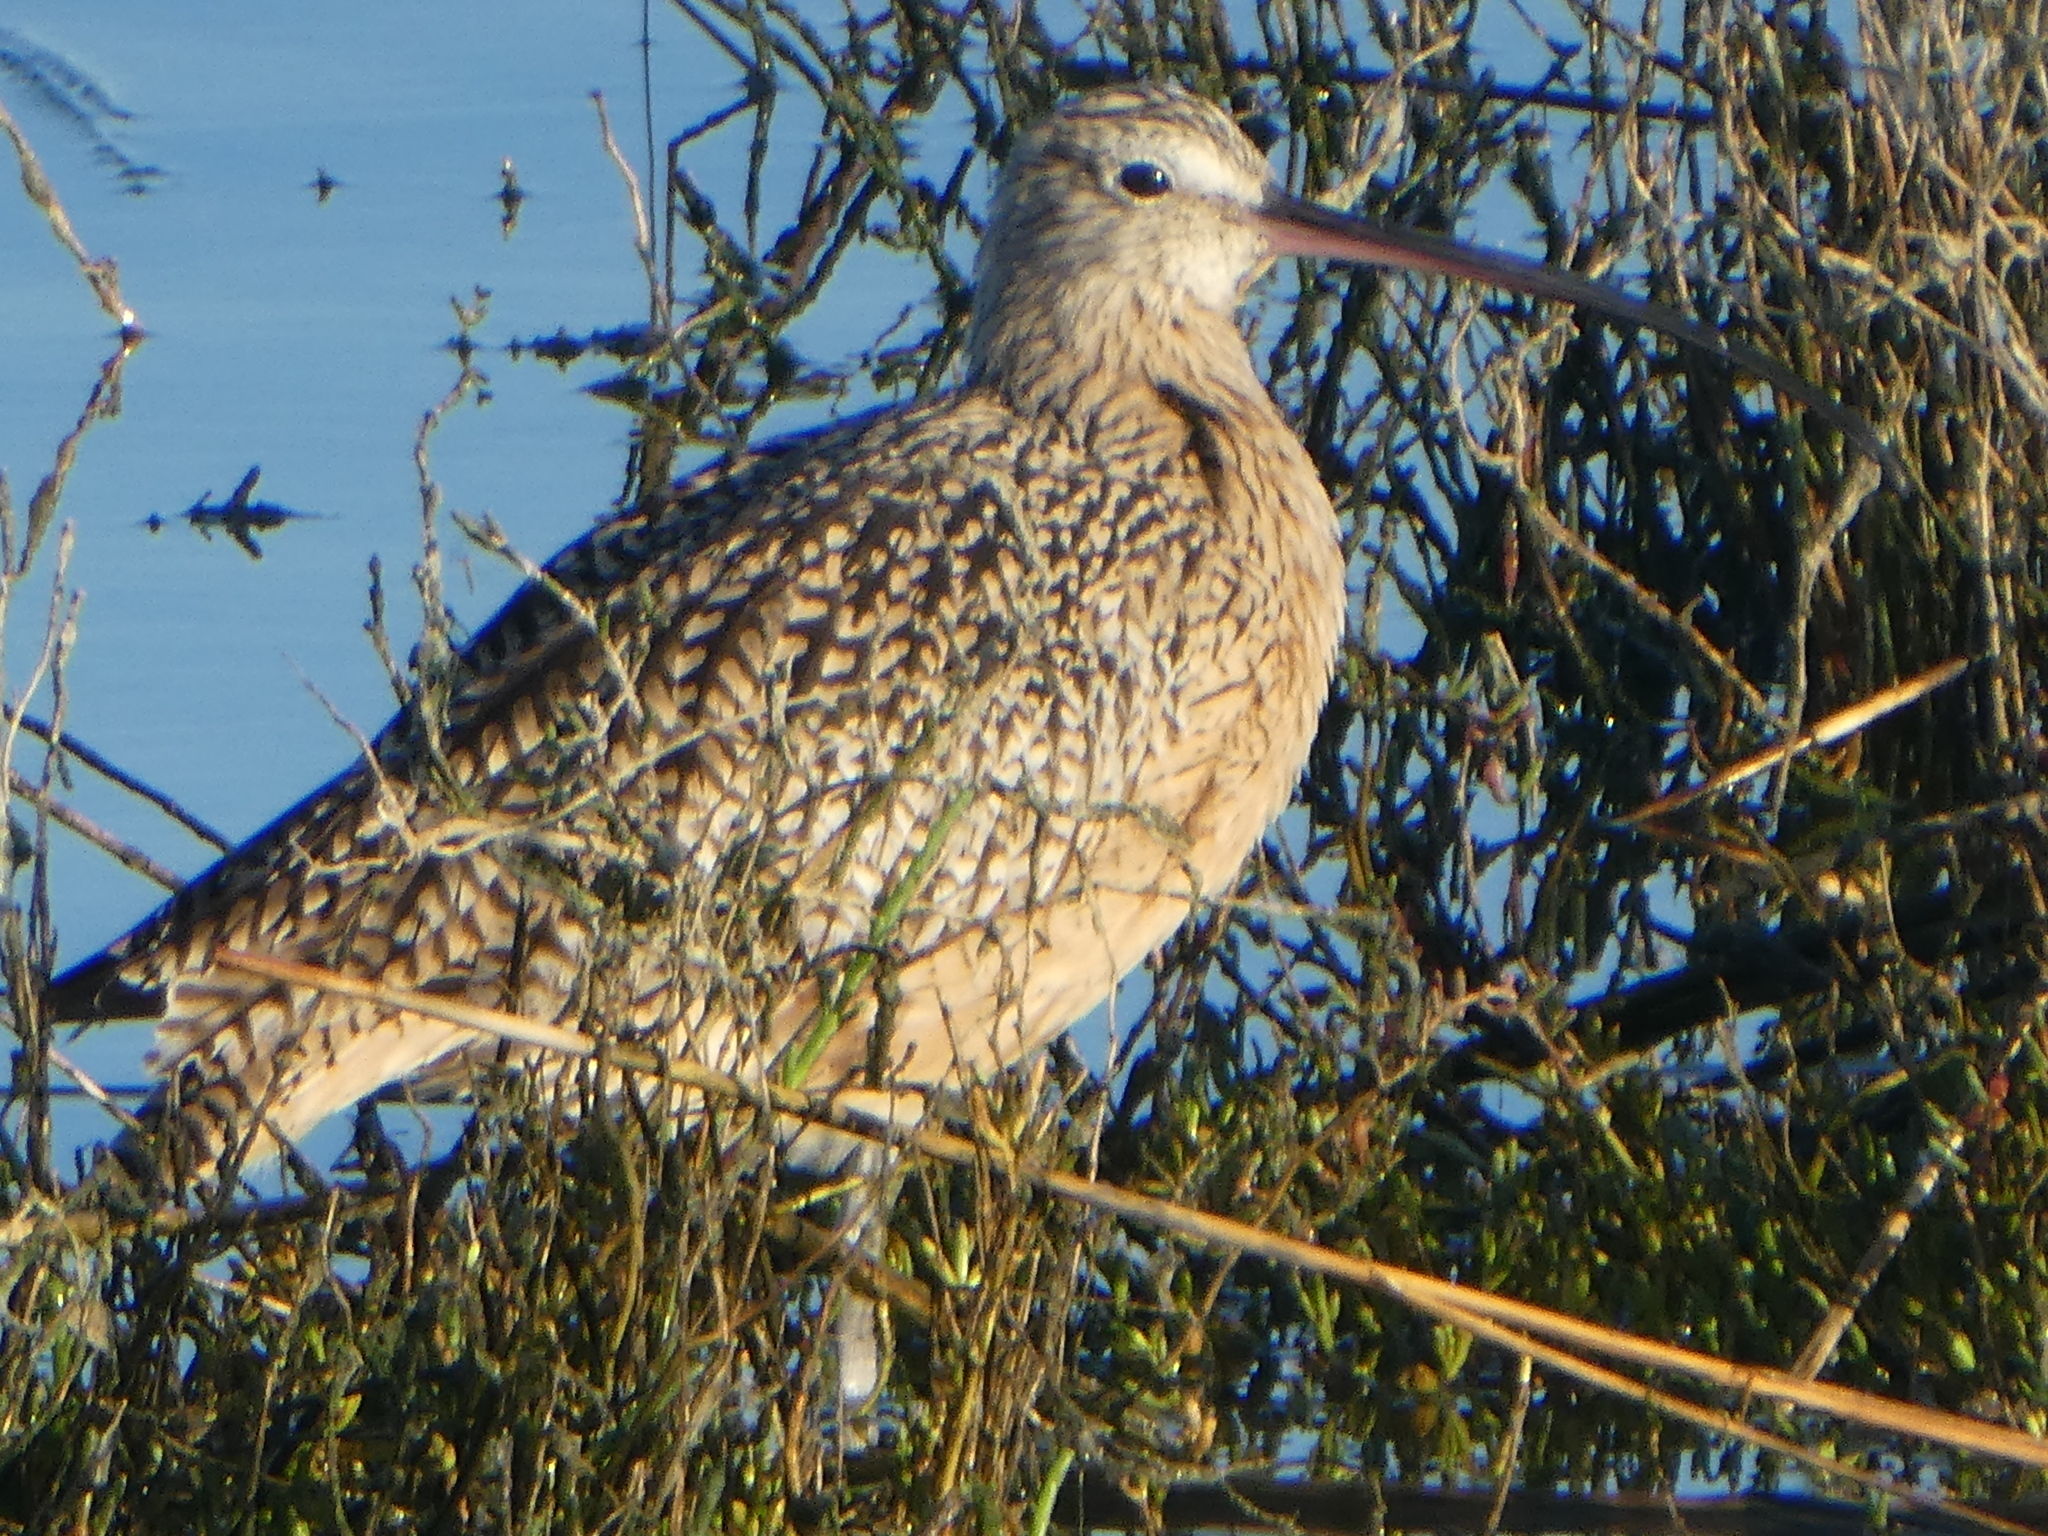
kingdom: Animalia
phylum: Chordata
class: Aves
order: Charadriiformes
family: Scolopacidae
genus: Numenius
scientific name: Numenius americanus
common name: Long-billed curlew
